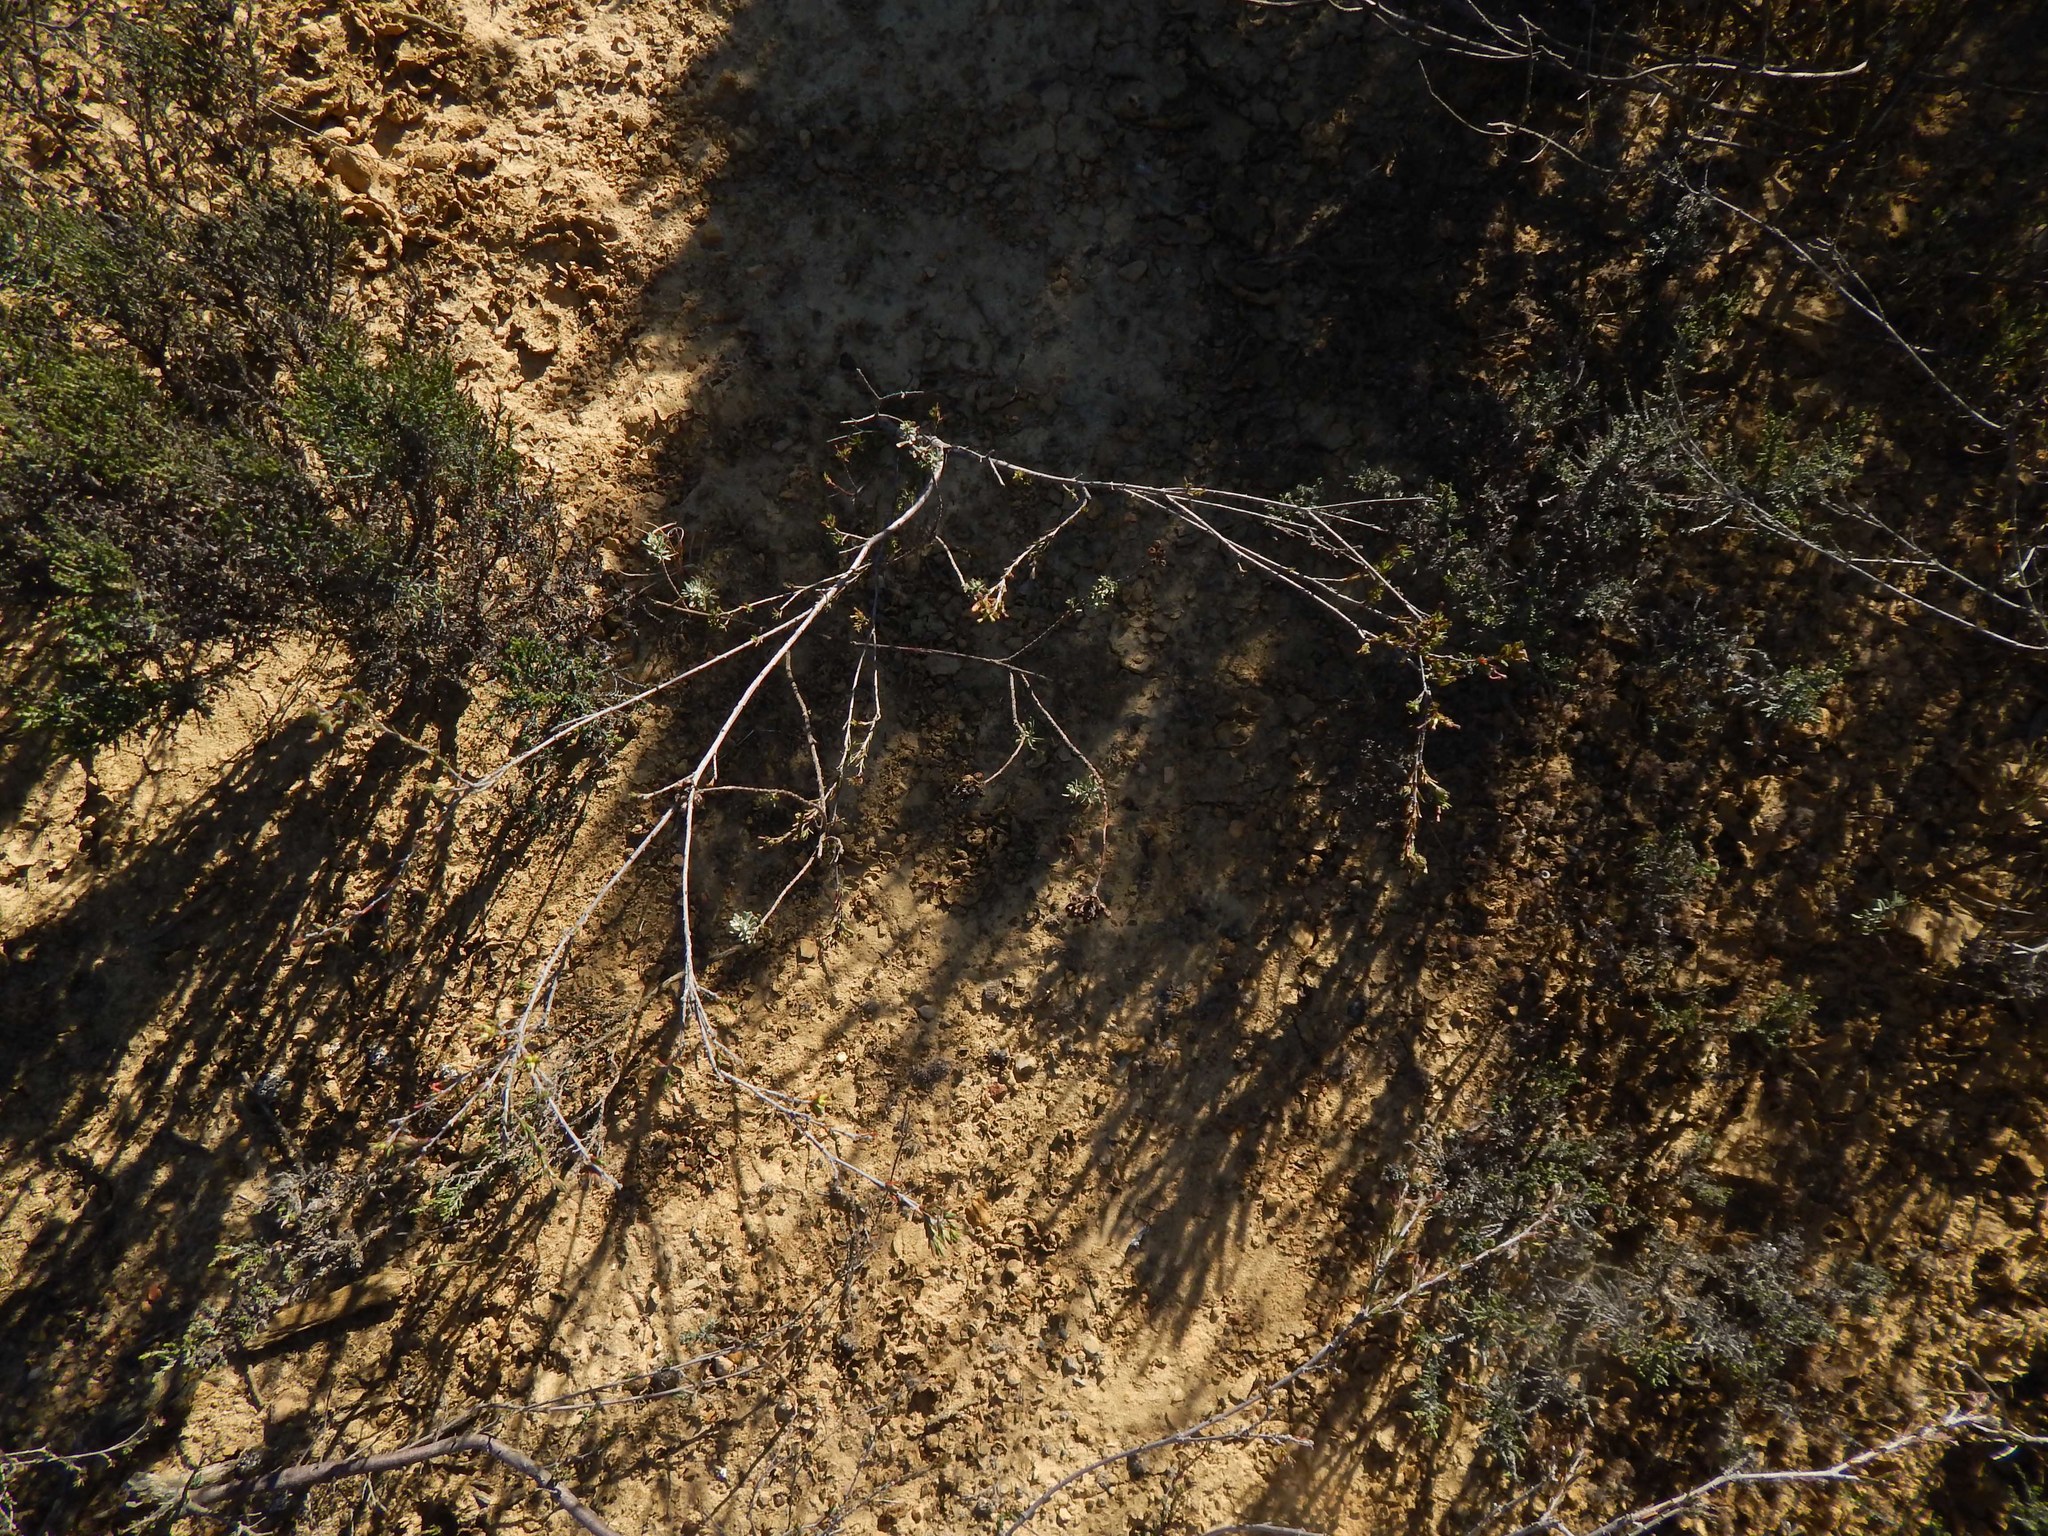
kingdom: Plantae
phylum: Tracheophyta
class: Magnoliopsida
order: Malvales
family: Thymelaeaceae
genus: Gnidia
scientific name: Gnidia laxa
